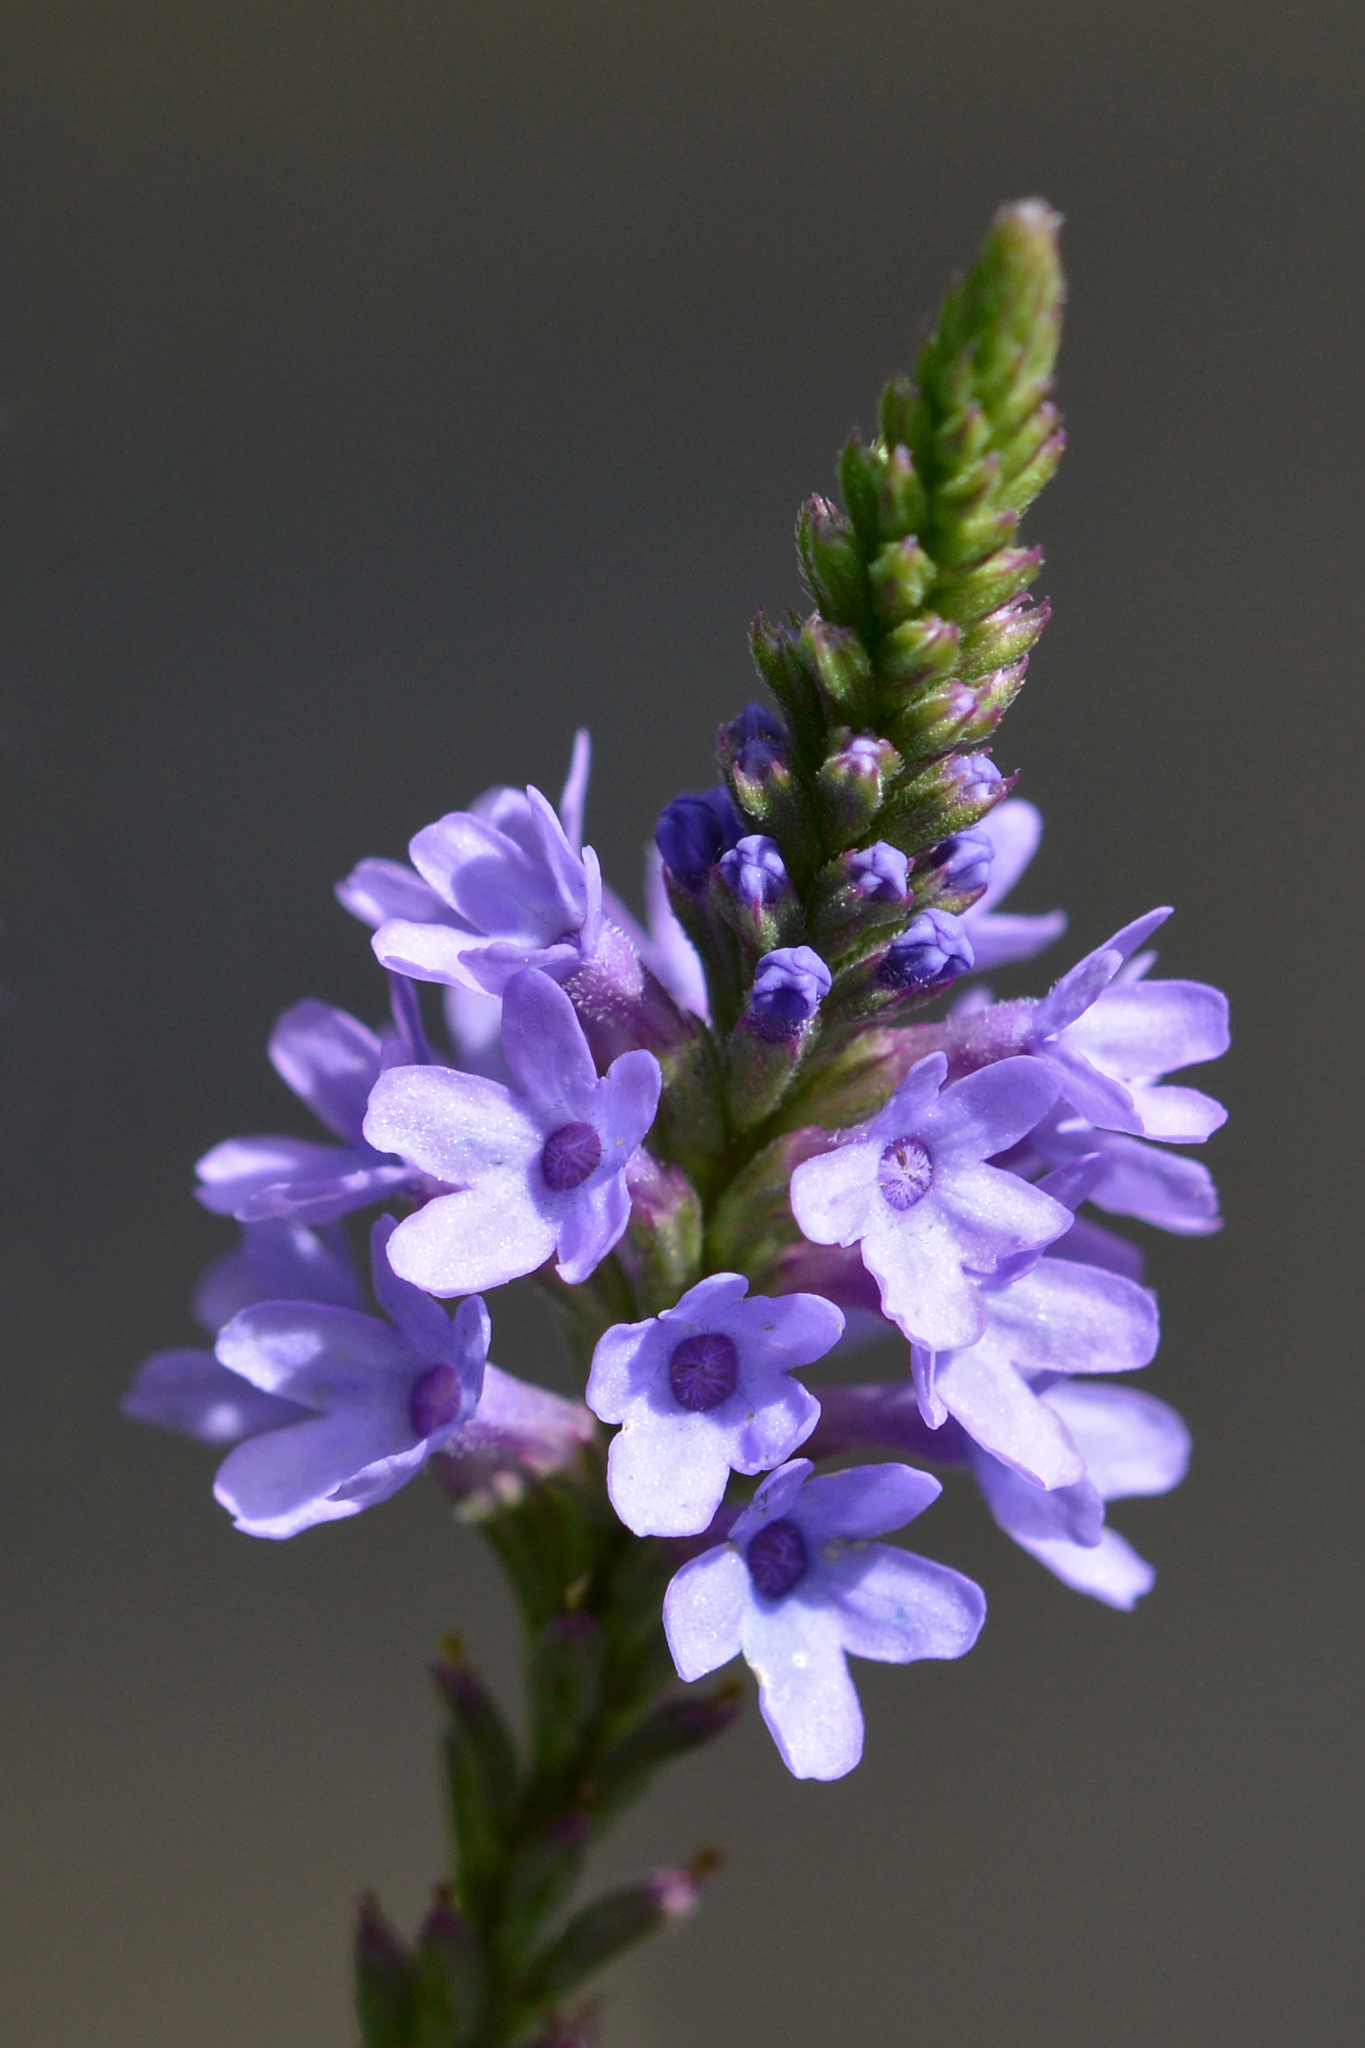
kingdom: Plantae
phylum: Tracheophyta
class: Magnoliopsida
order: Lamiales
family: Verbenaceae
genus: Verbena
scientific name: Verbena hastata
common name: American blue vervain
